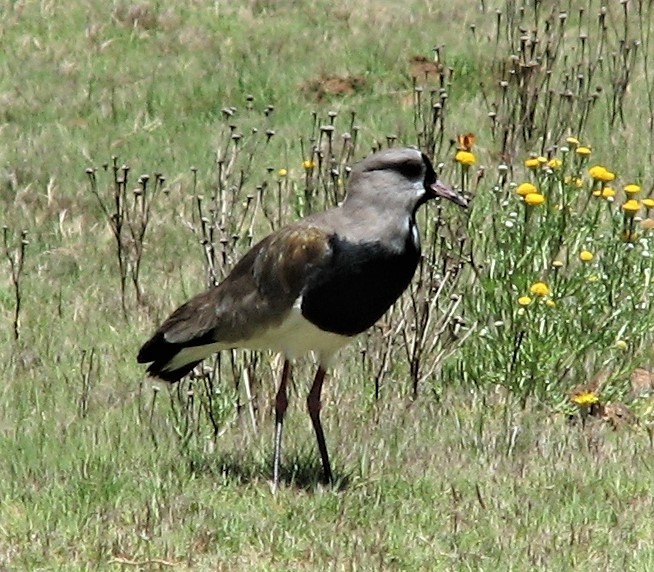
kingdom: Animalia
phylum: Chordata
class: Aves
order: Charadriiformes
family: Charadriidae
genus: Vanellus
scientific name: Vanellus chilensis
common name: Southern lapwing
